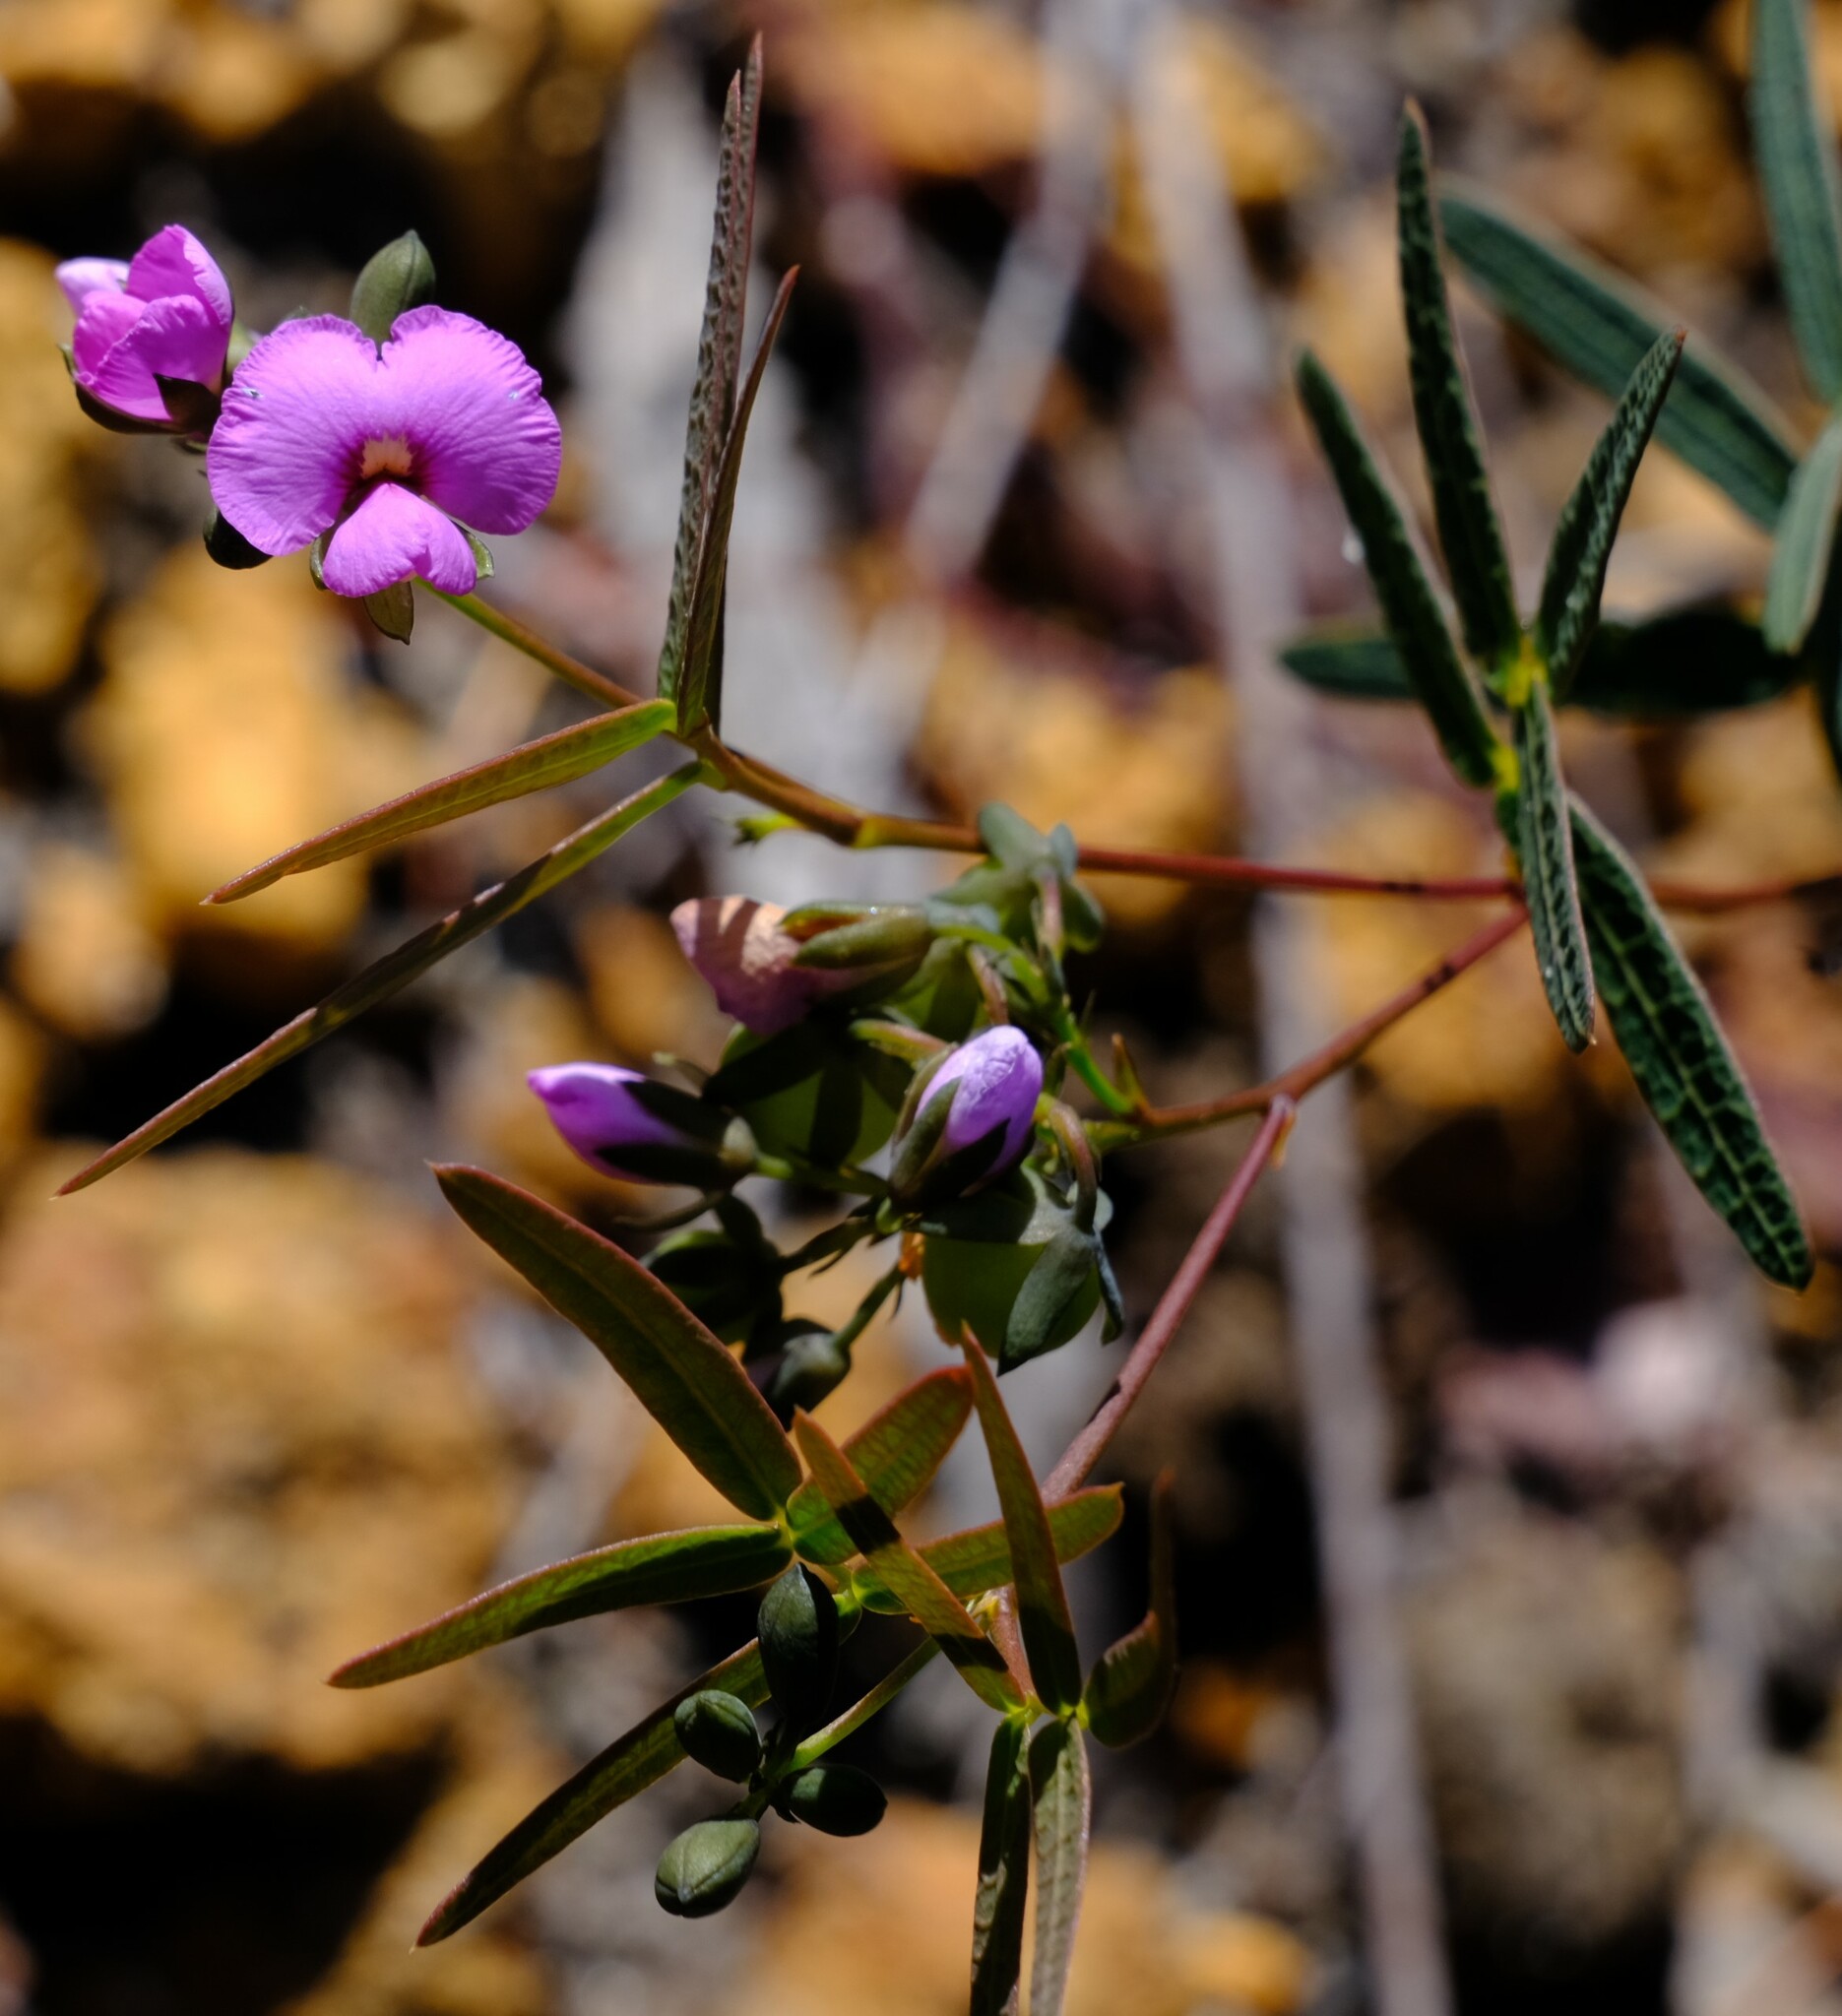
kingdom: Plantae
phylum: Tracheophyta
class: Magnoliopsida
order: Fabales
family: Fabaceae
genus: Gompholobium
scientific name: Gompholobium knightianum
